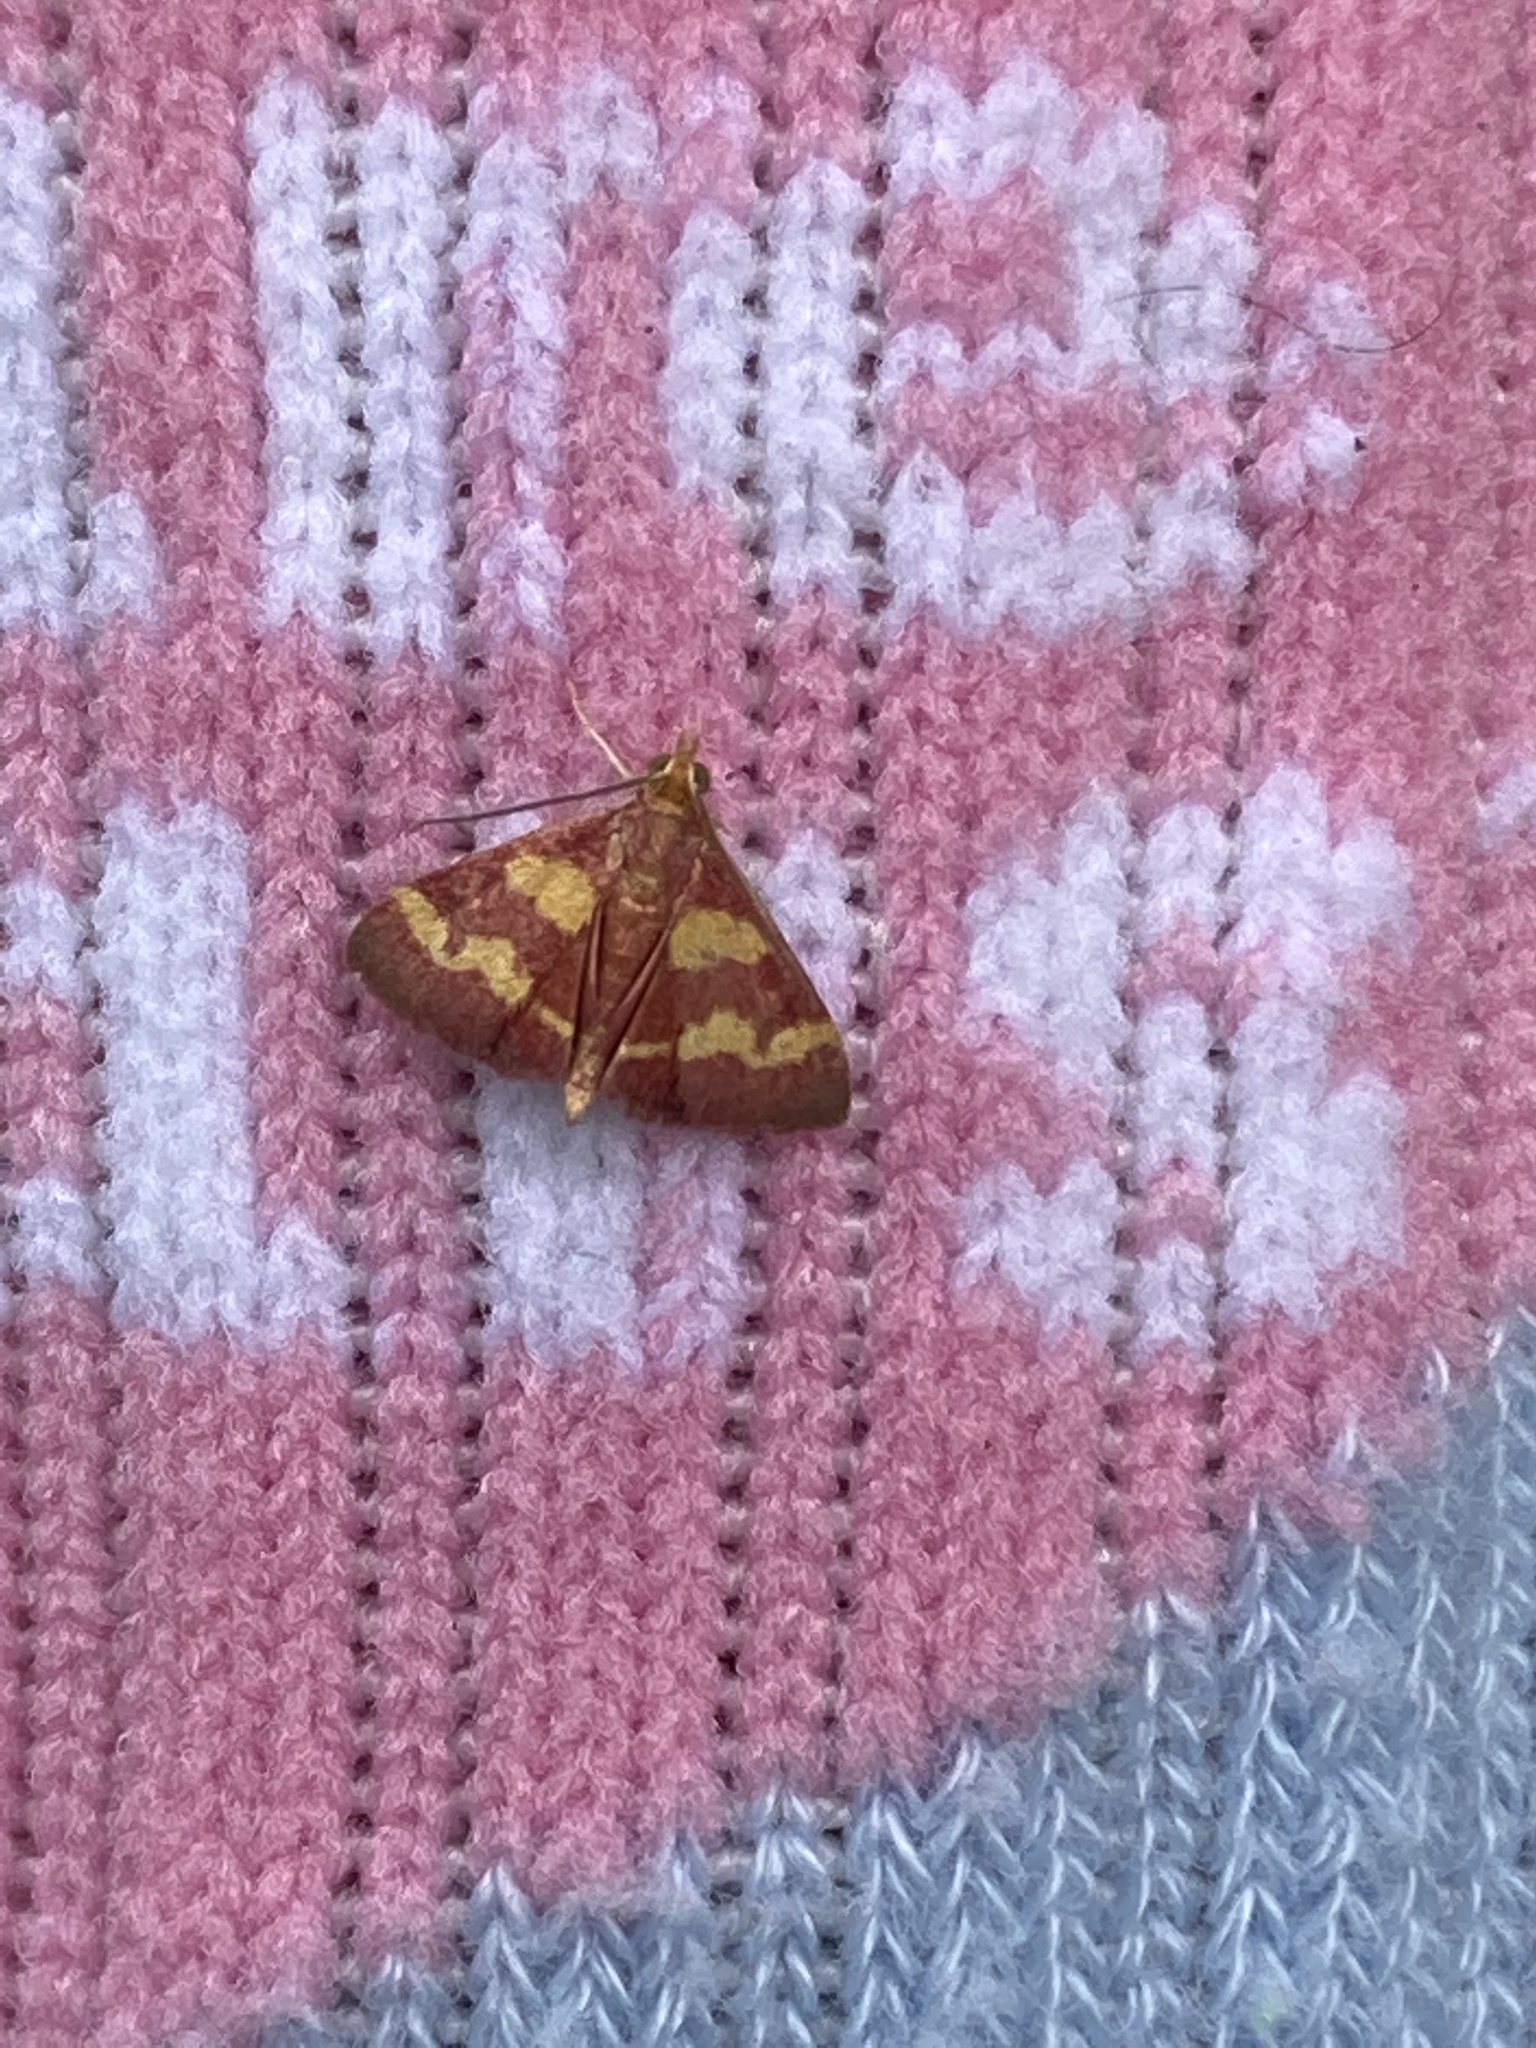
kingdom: Animalia
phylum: Arthropoda
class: Insecta
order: Lepidoptera
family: Crambidae
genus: Pyrausta
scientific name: Pyrausta tyralis
